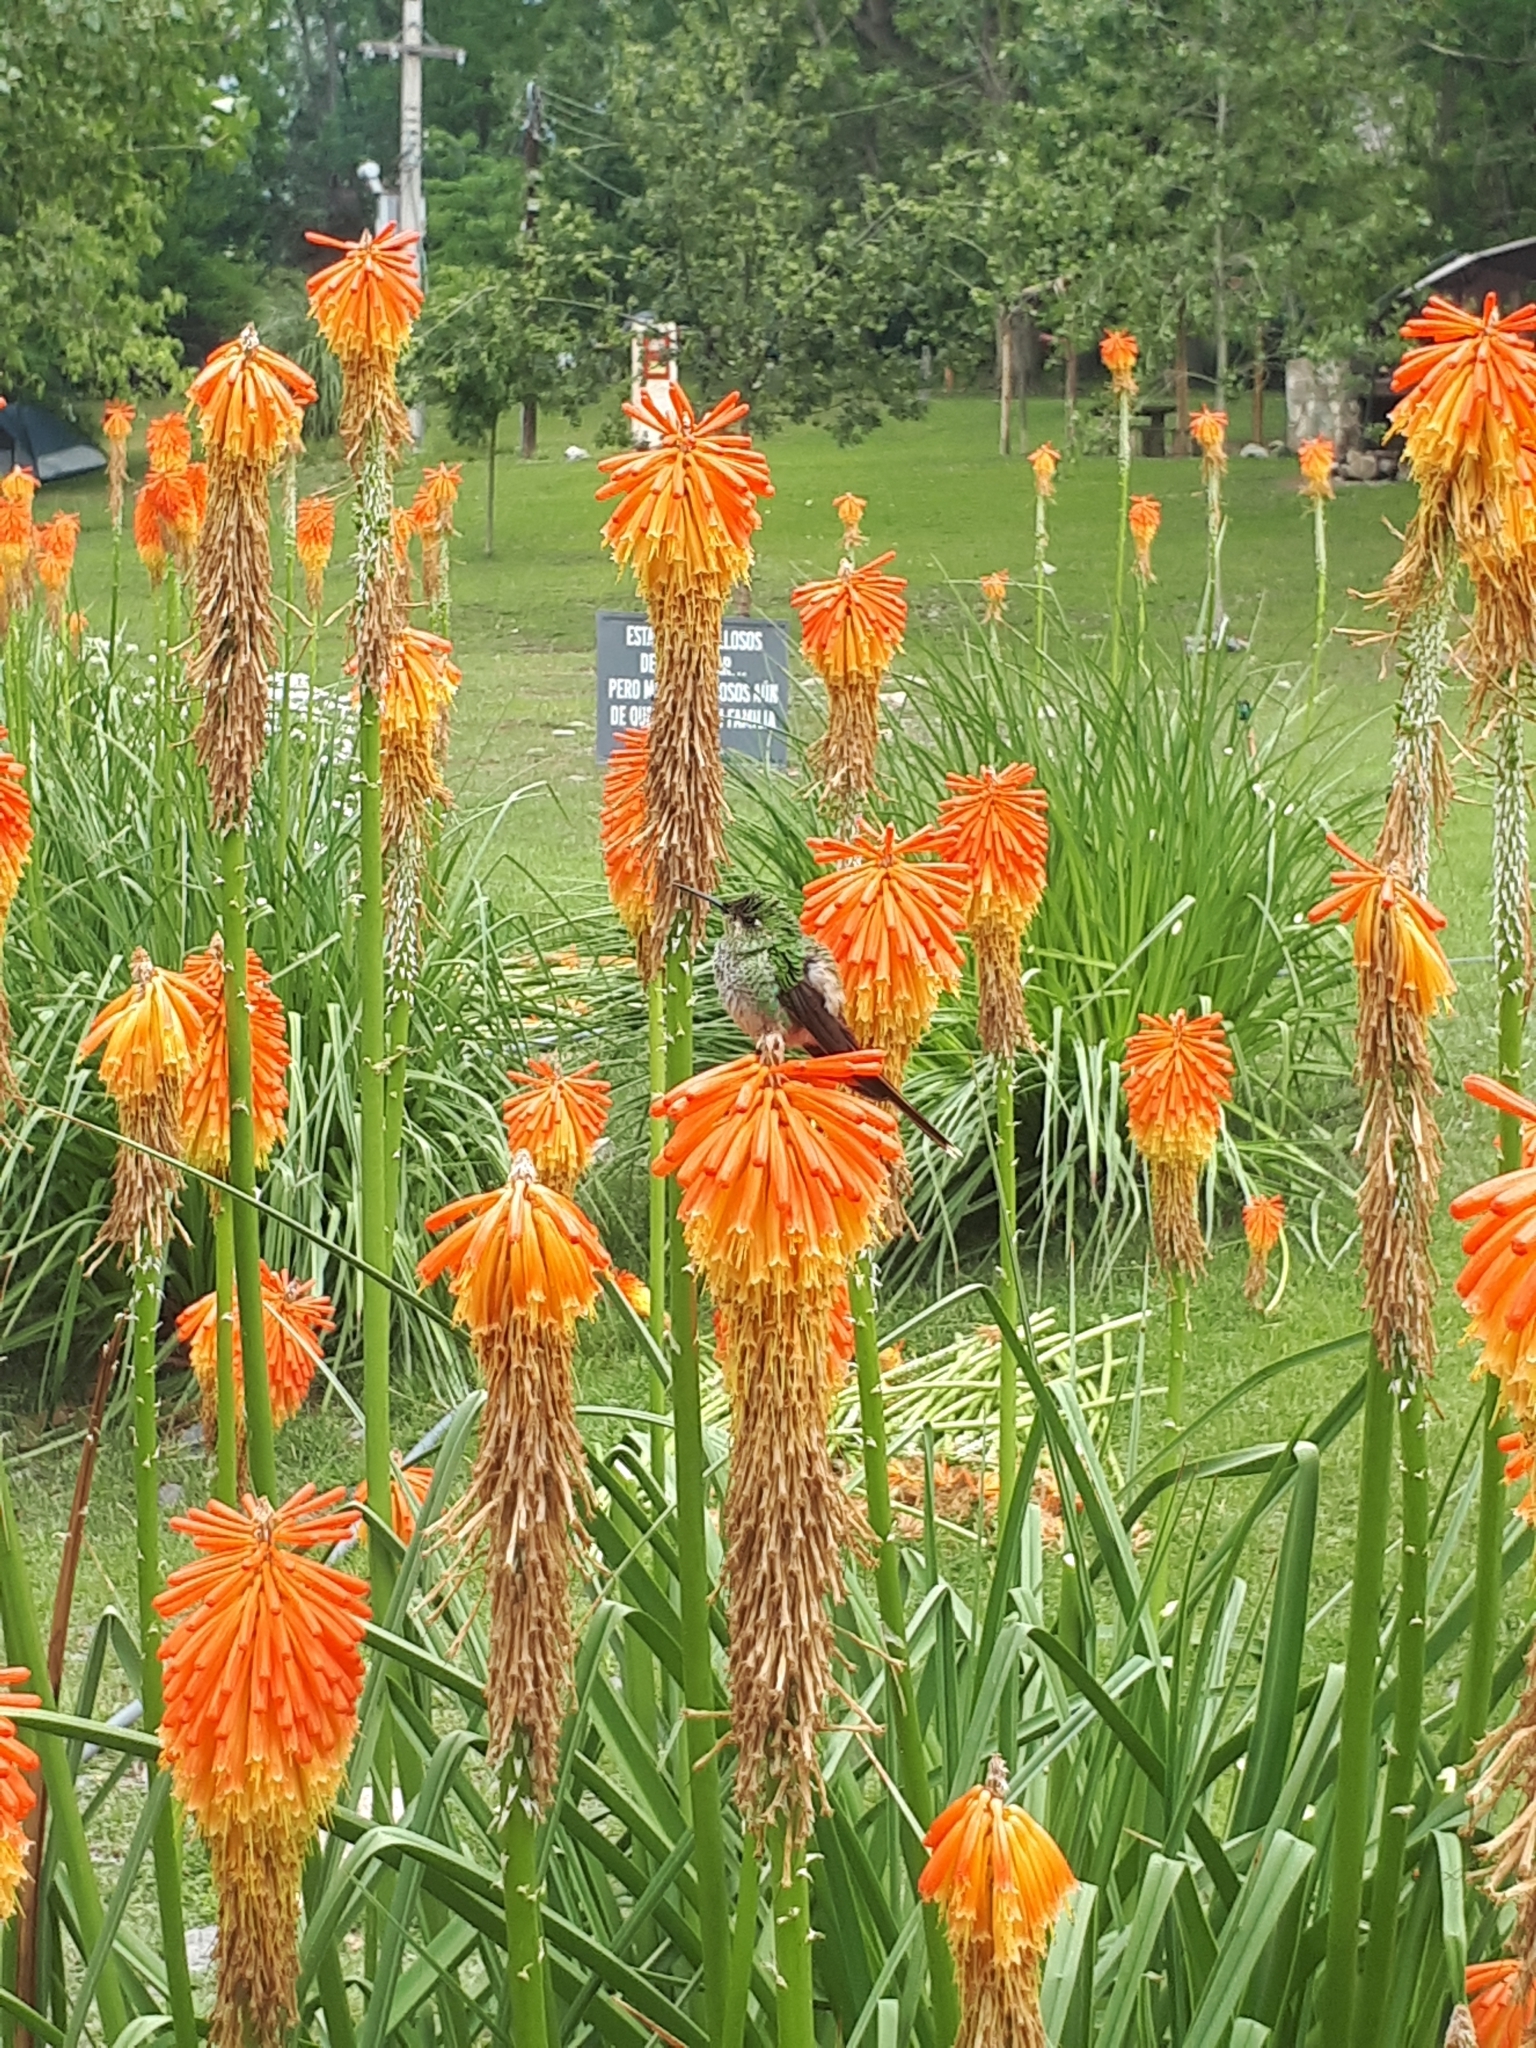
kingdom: Animalia
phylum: Chordata
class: Aves
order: Apodiformes
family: Trochilidae
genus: Sappho
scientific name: Sappho sparganurus
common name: Red-tailed comet
